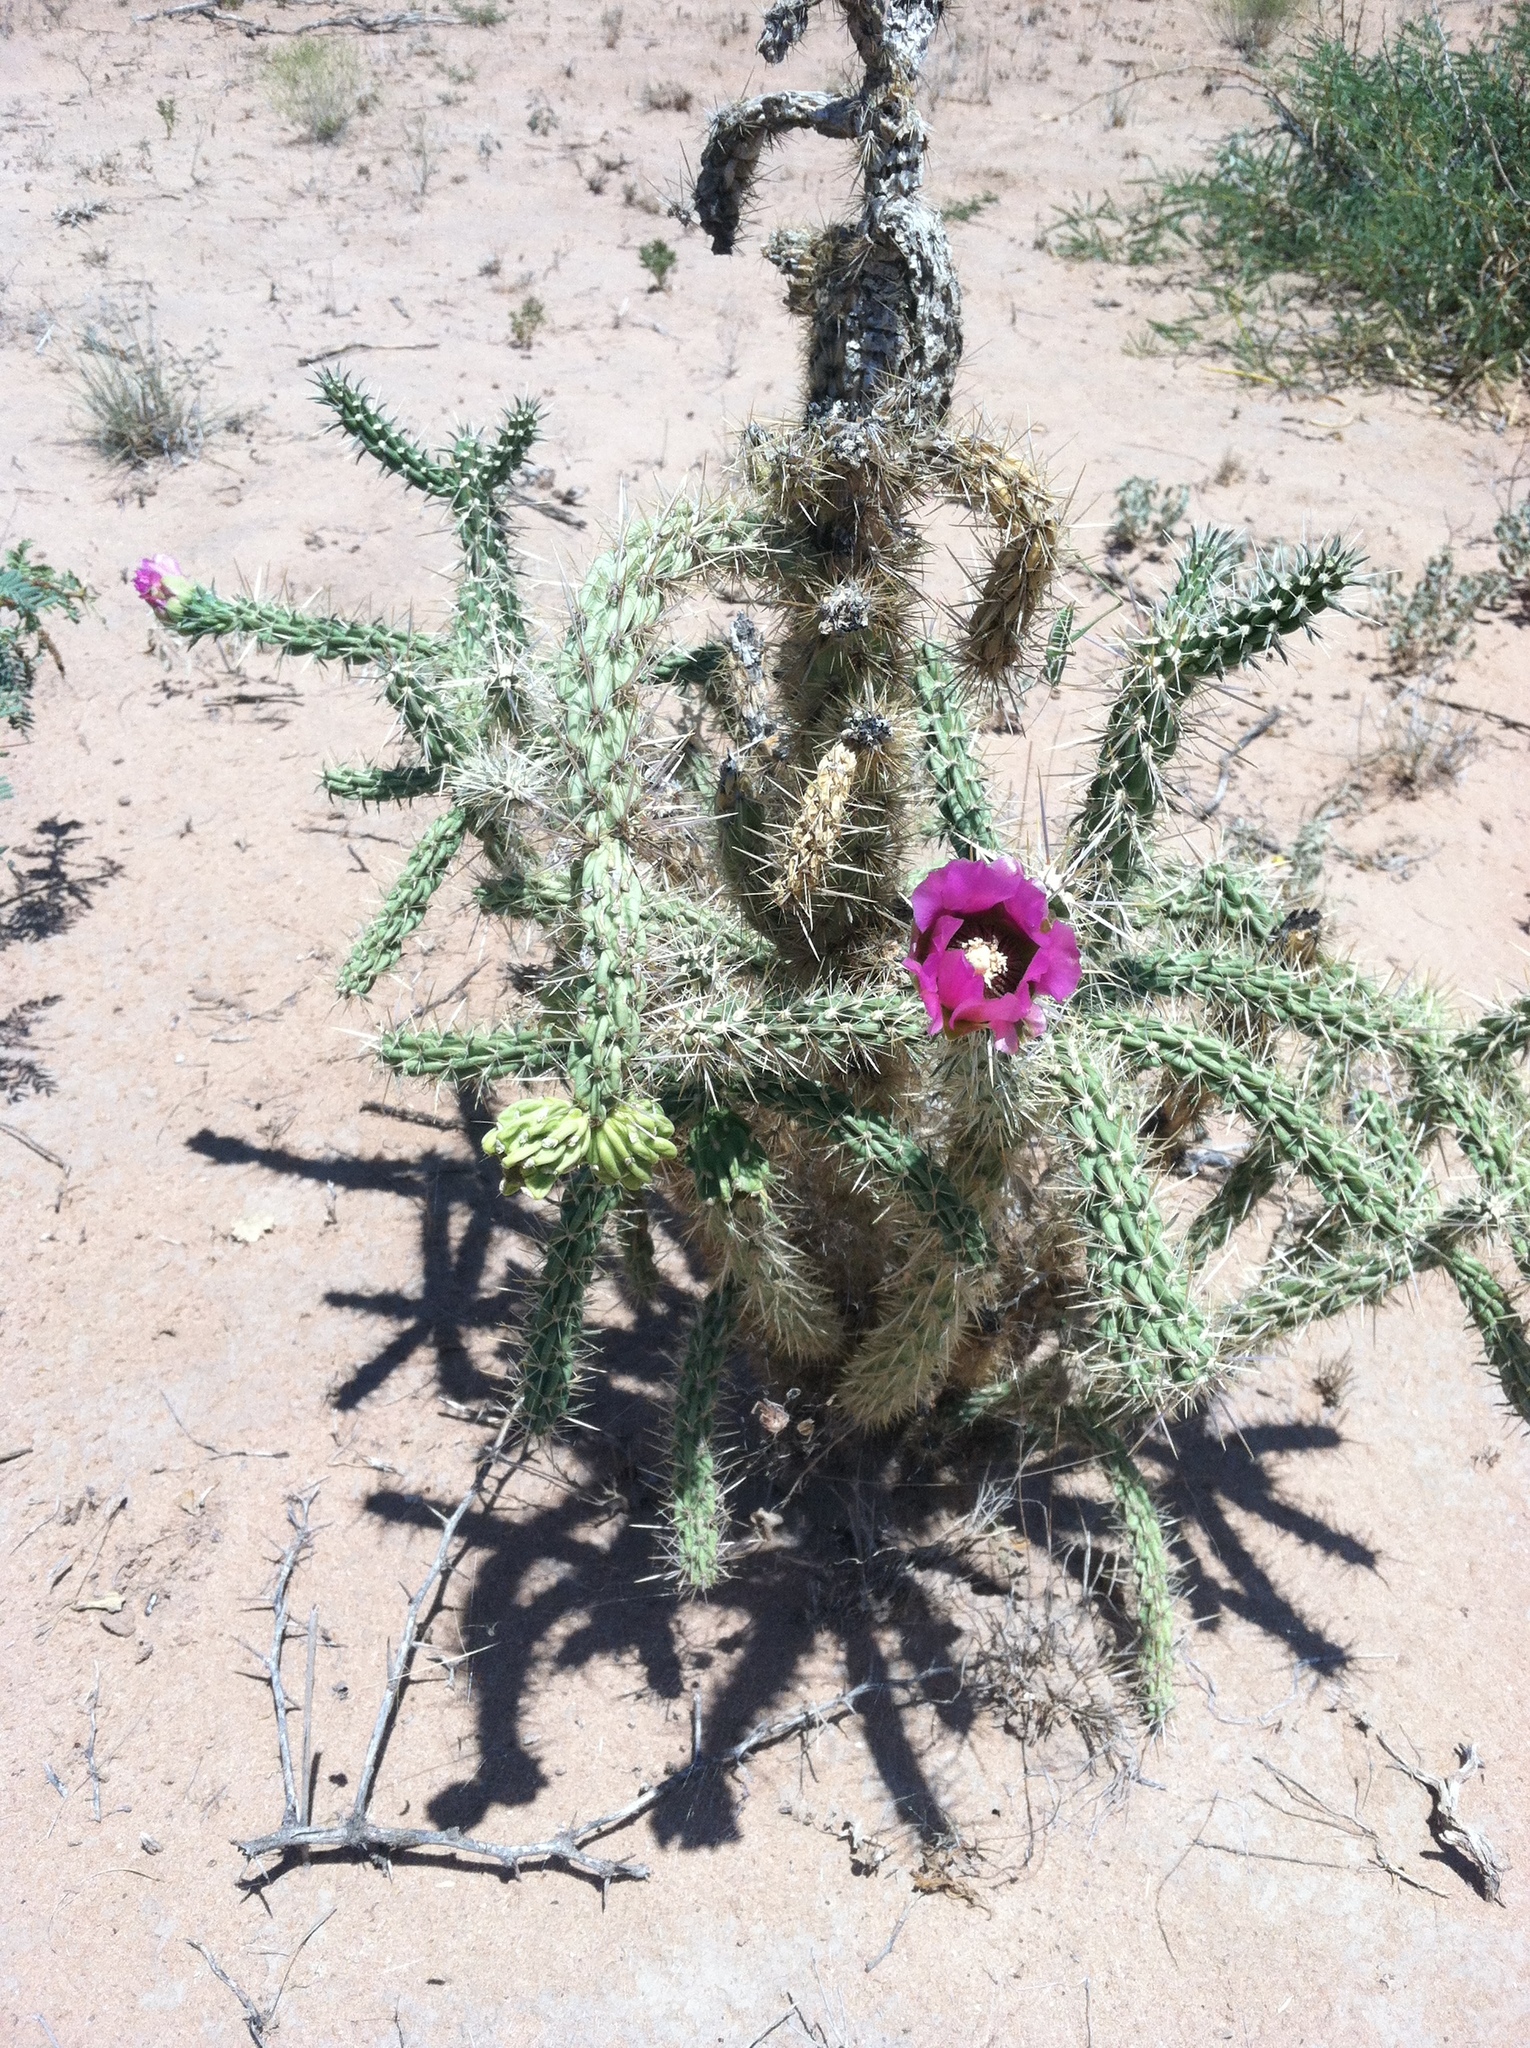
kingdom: Plantae
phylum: Tracheophyta
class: Magnoliopsida
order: Caryophyllales
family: Cactaceae
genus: Cylindropuntia
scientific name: Cylindropuntia imbricata
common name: Candelabrum cactus
